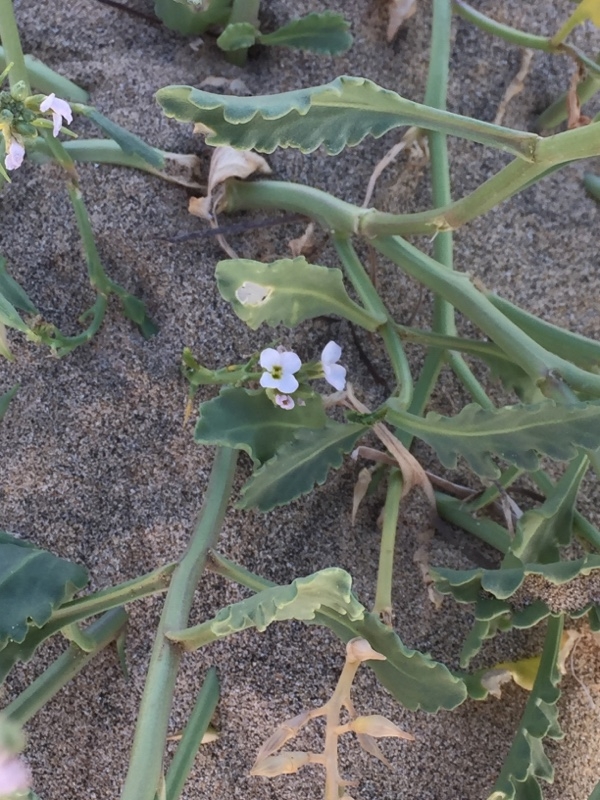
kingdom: Plantae
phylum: Tracheophyta
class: Magnoliopsida
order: Brassicales
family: Brassicaceae
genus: Cakile
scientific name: Cakile maritima
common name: Sea rocket
